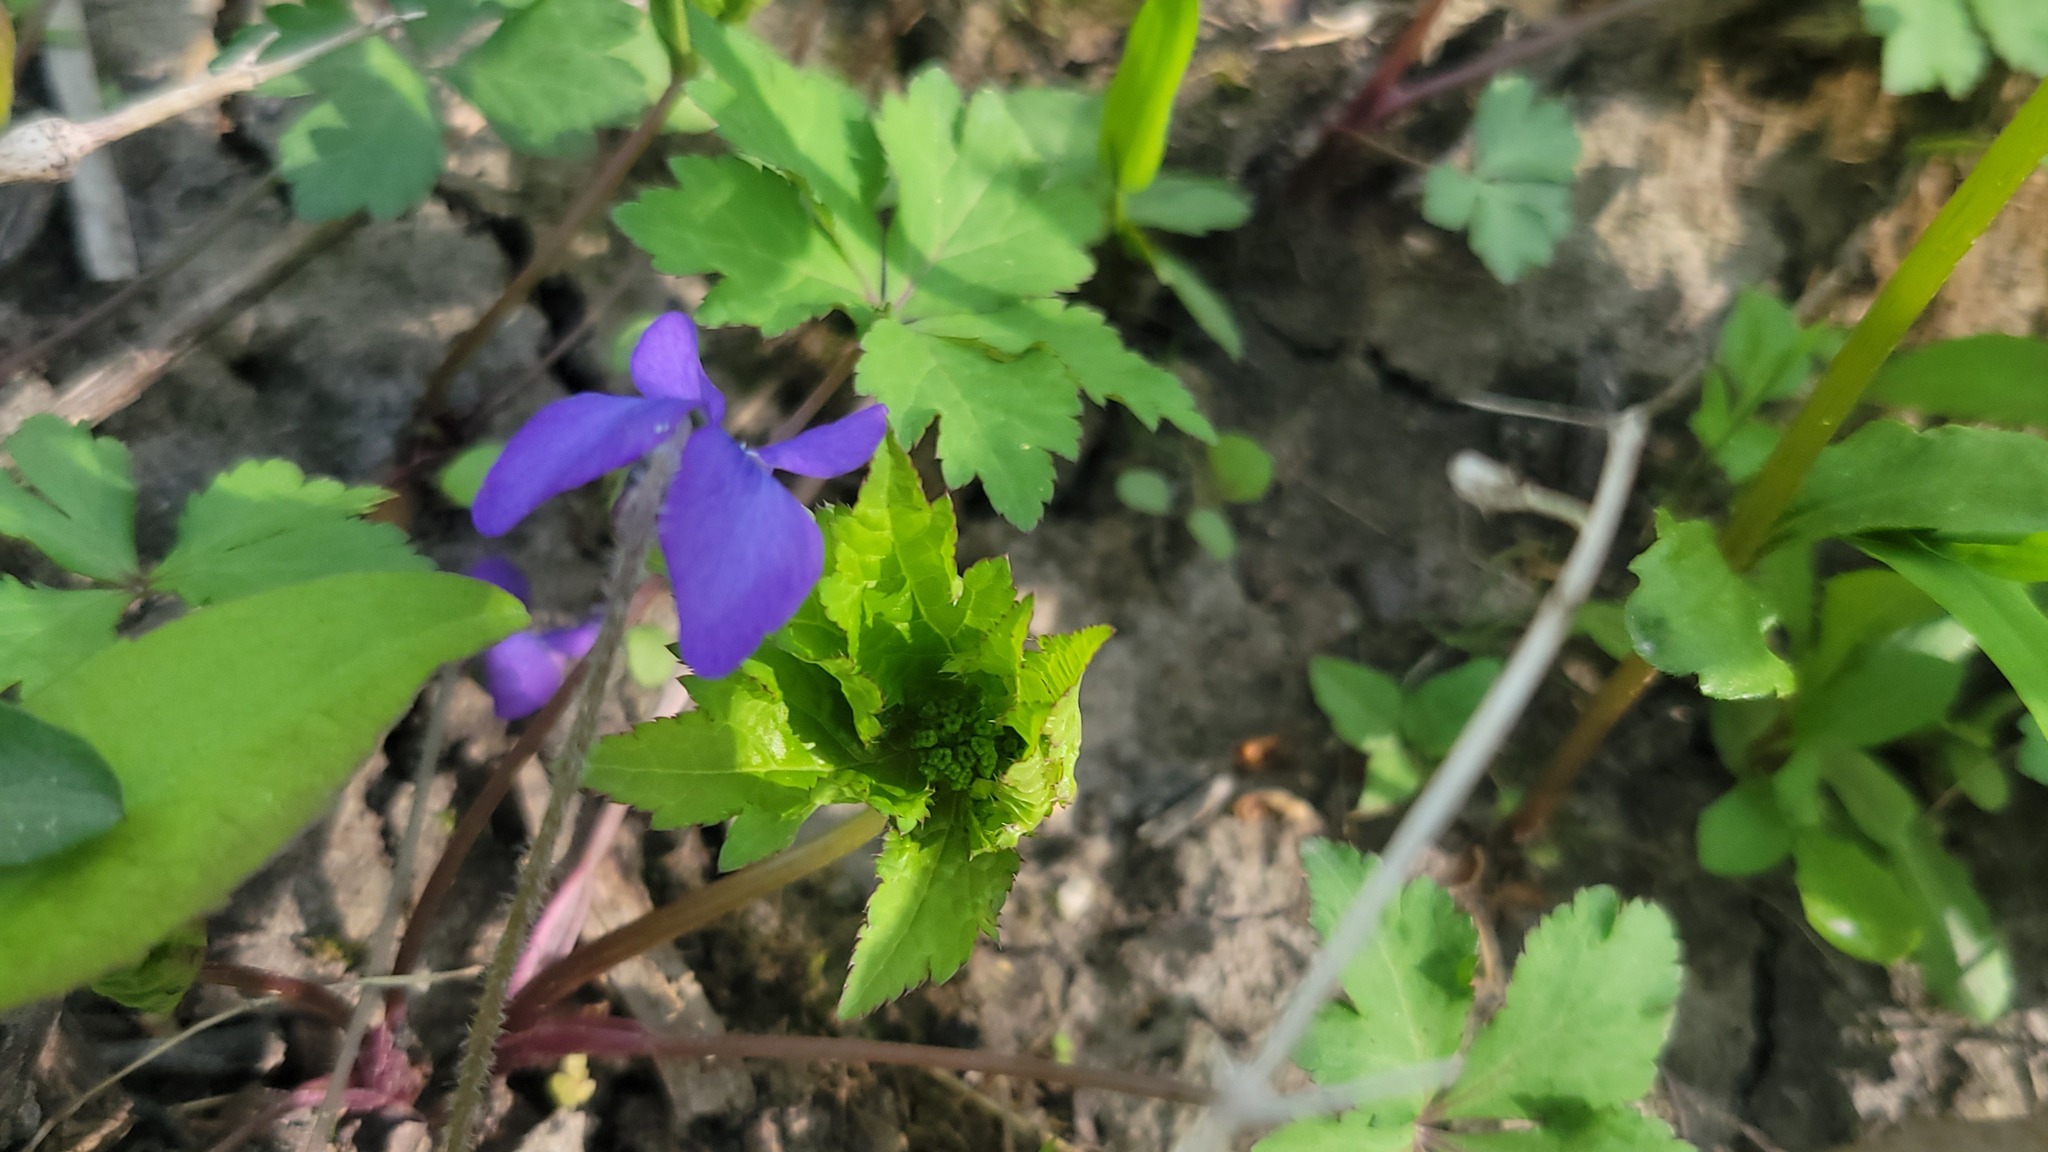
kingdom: Plantae
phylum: Tracheophyta
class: Magnoliopsida
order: Malpighiales
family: Violaceae
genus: Viola
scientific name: Viola sororia
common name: Dooryard violet
